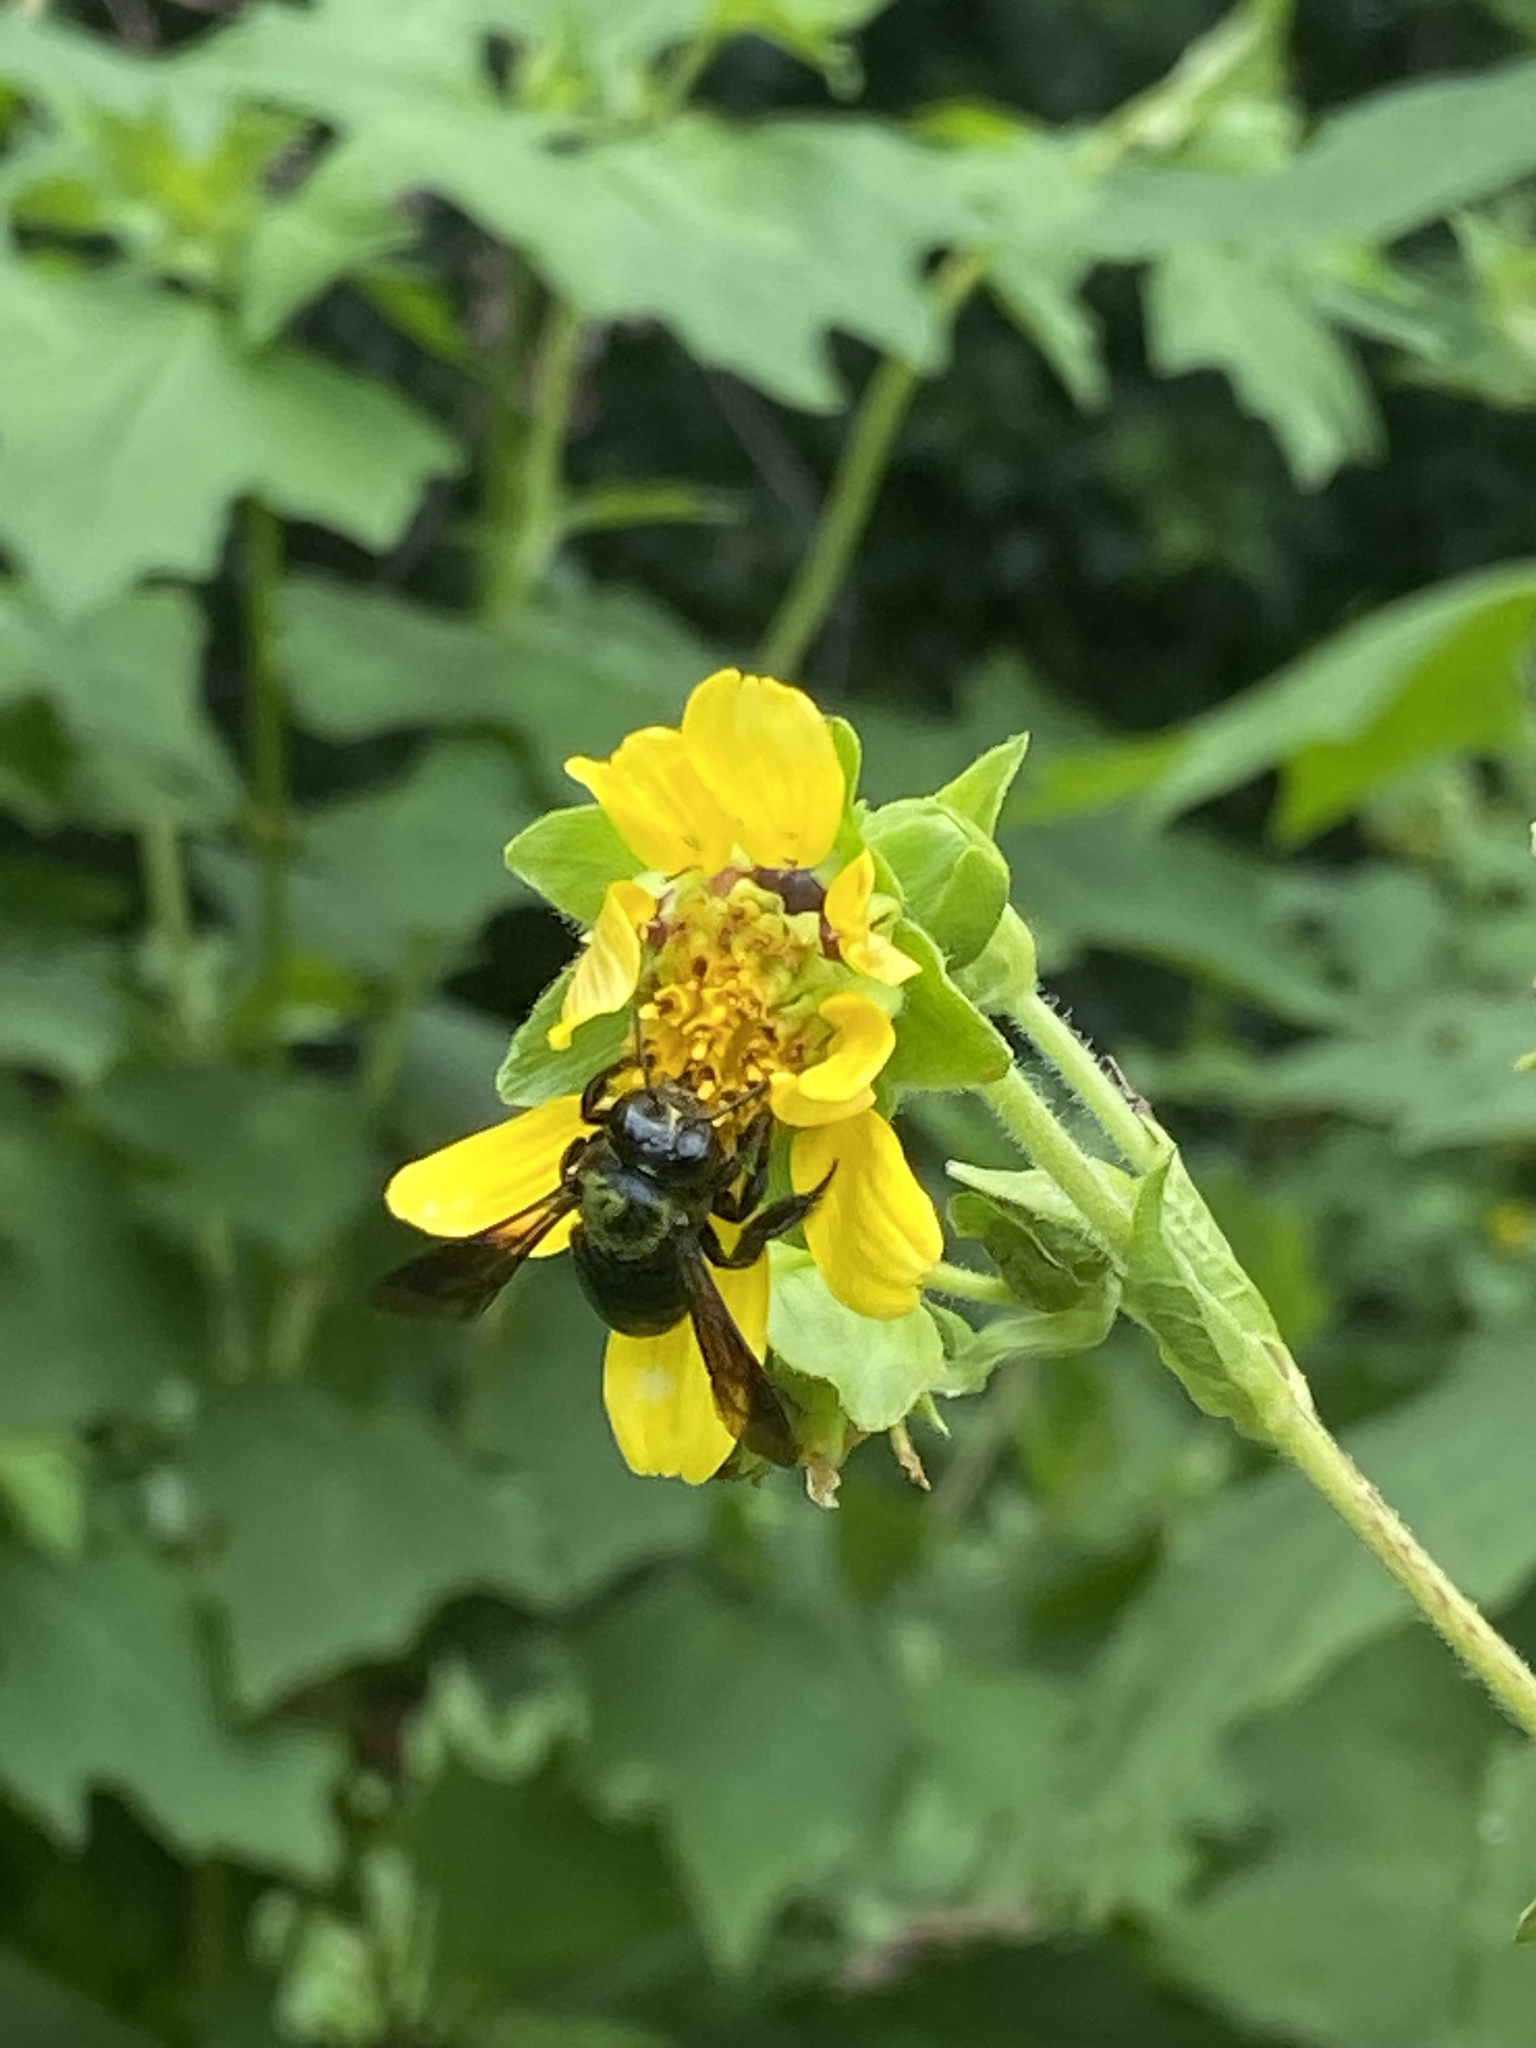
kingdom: Animalia
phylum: Arthropoda
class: Insecta
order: Hymenoptera
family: Megachilidae
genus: Megachile
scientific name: Megachile xylocopoides
